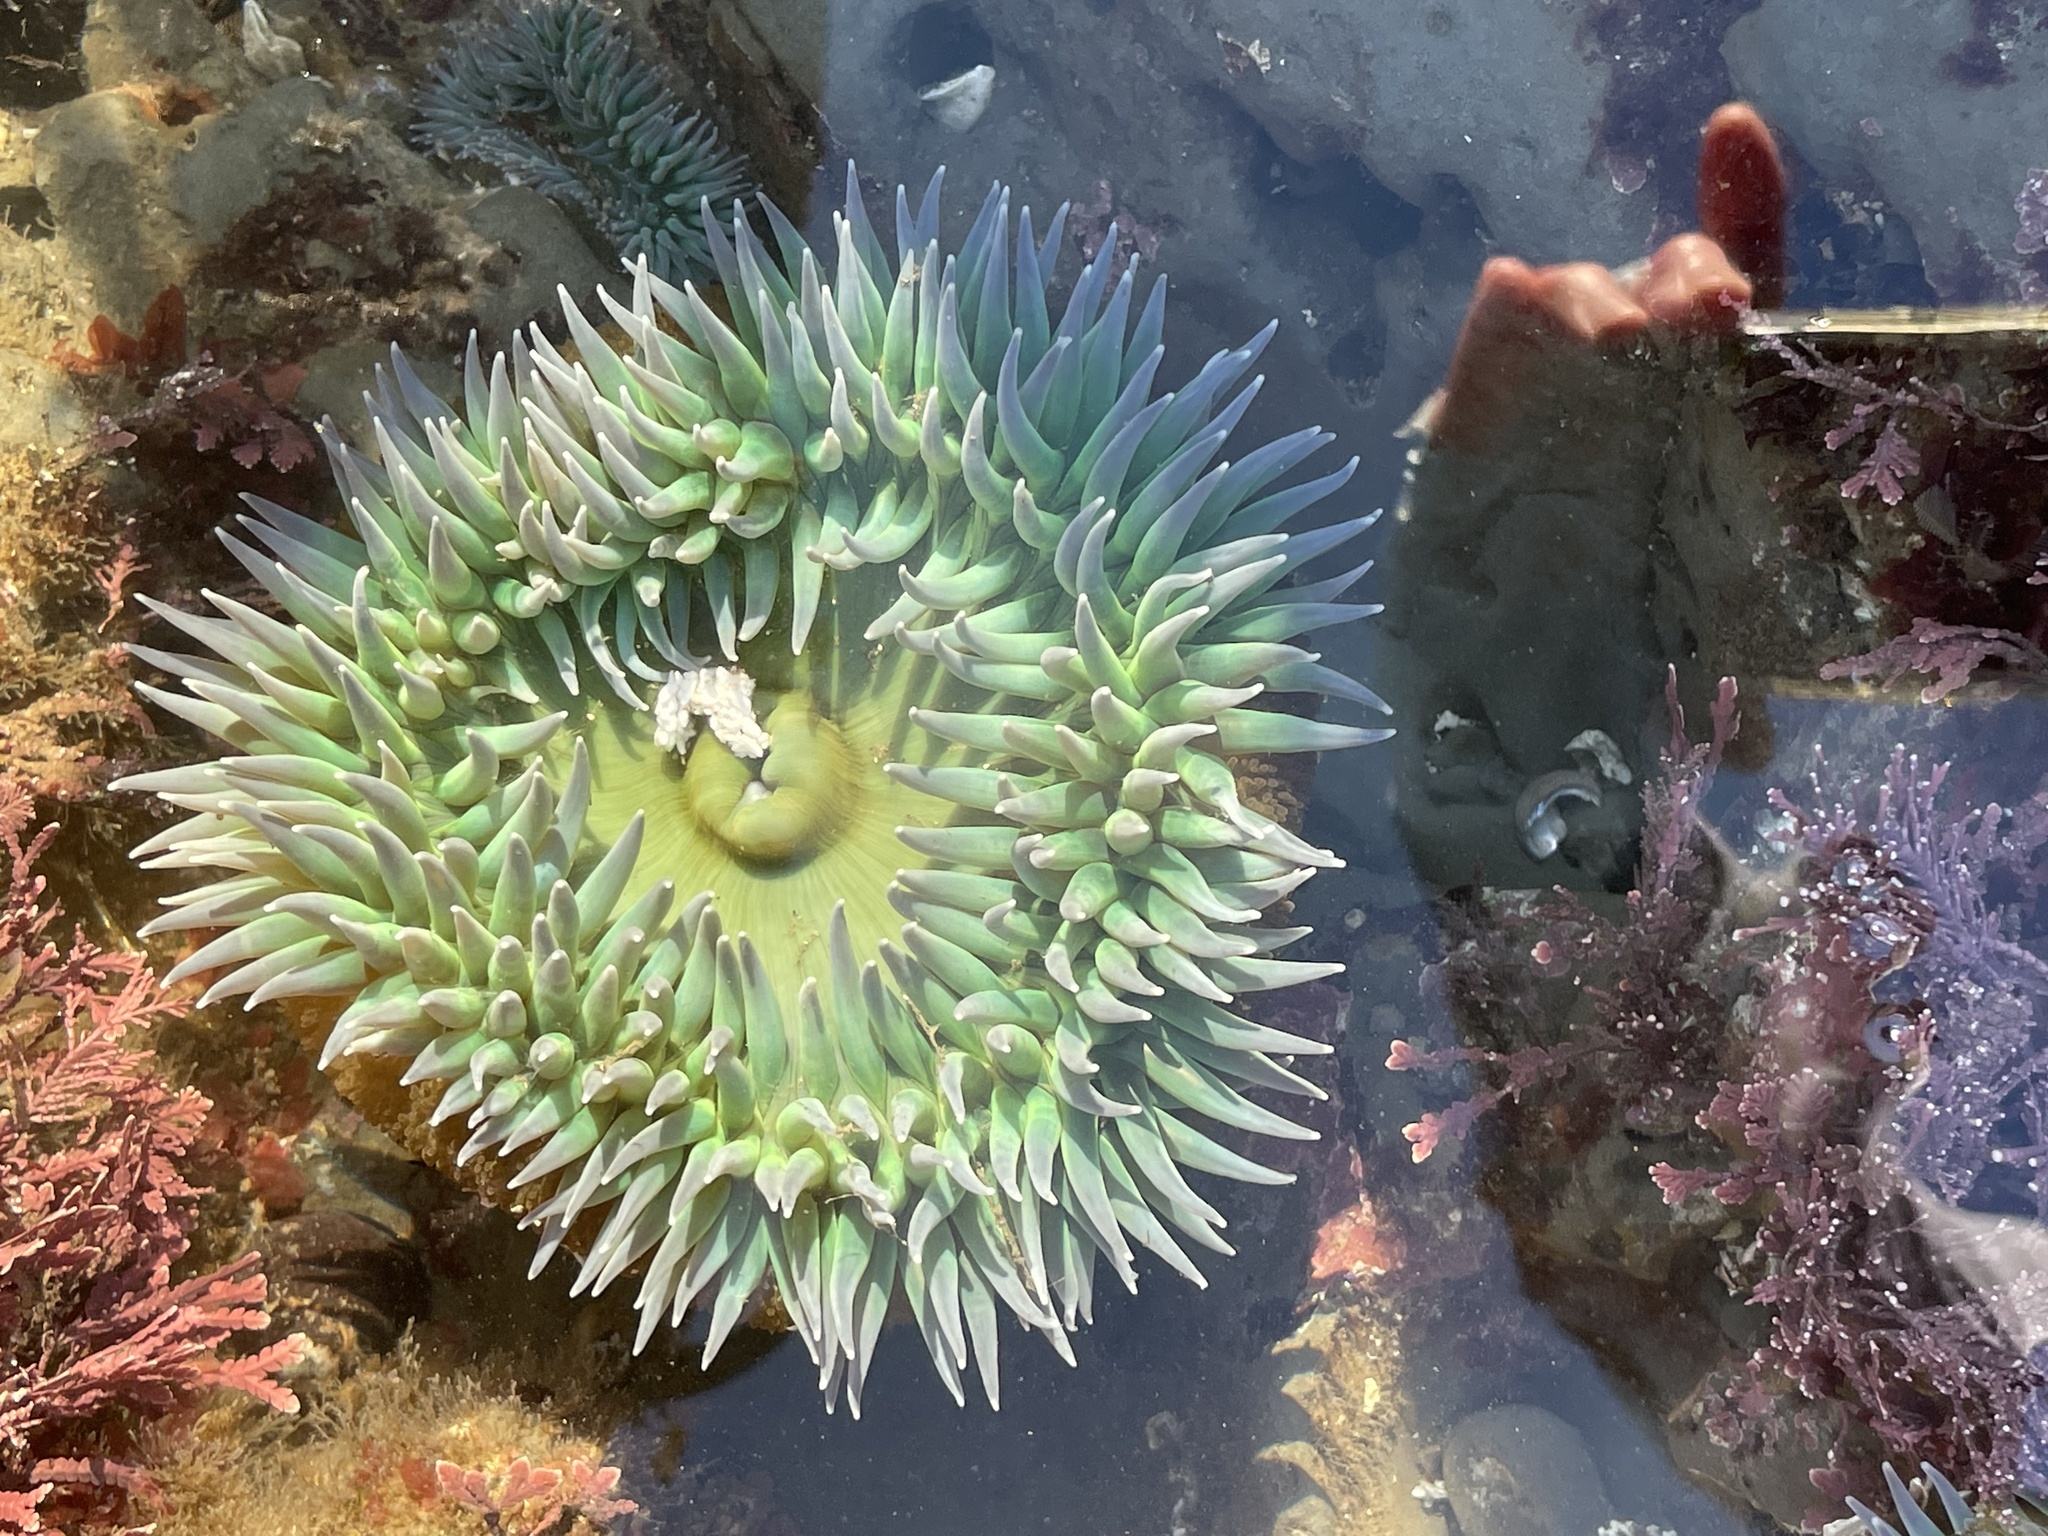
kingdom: Animalia
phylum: Cnidaria
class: Anthozoa
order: Actiniaria
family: Actiniidae
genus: Anthopleura
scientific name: Anthopleura xanthogrammica
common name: Giant green anemone
